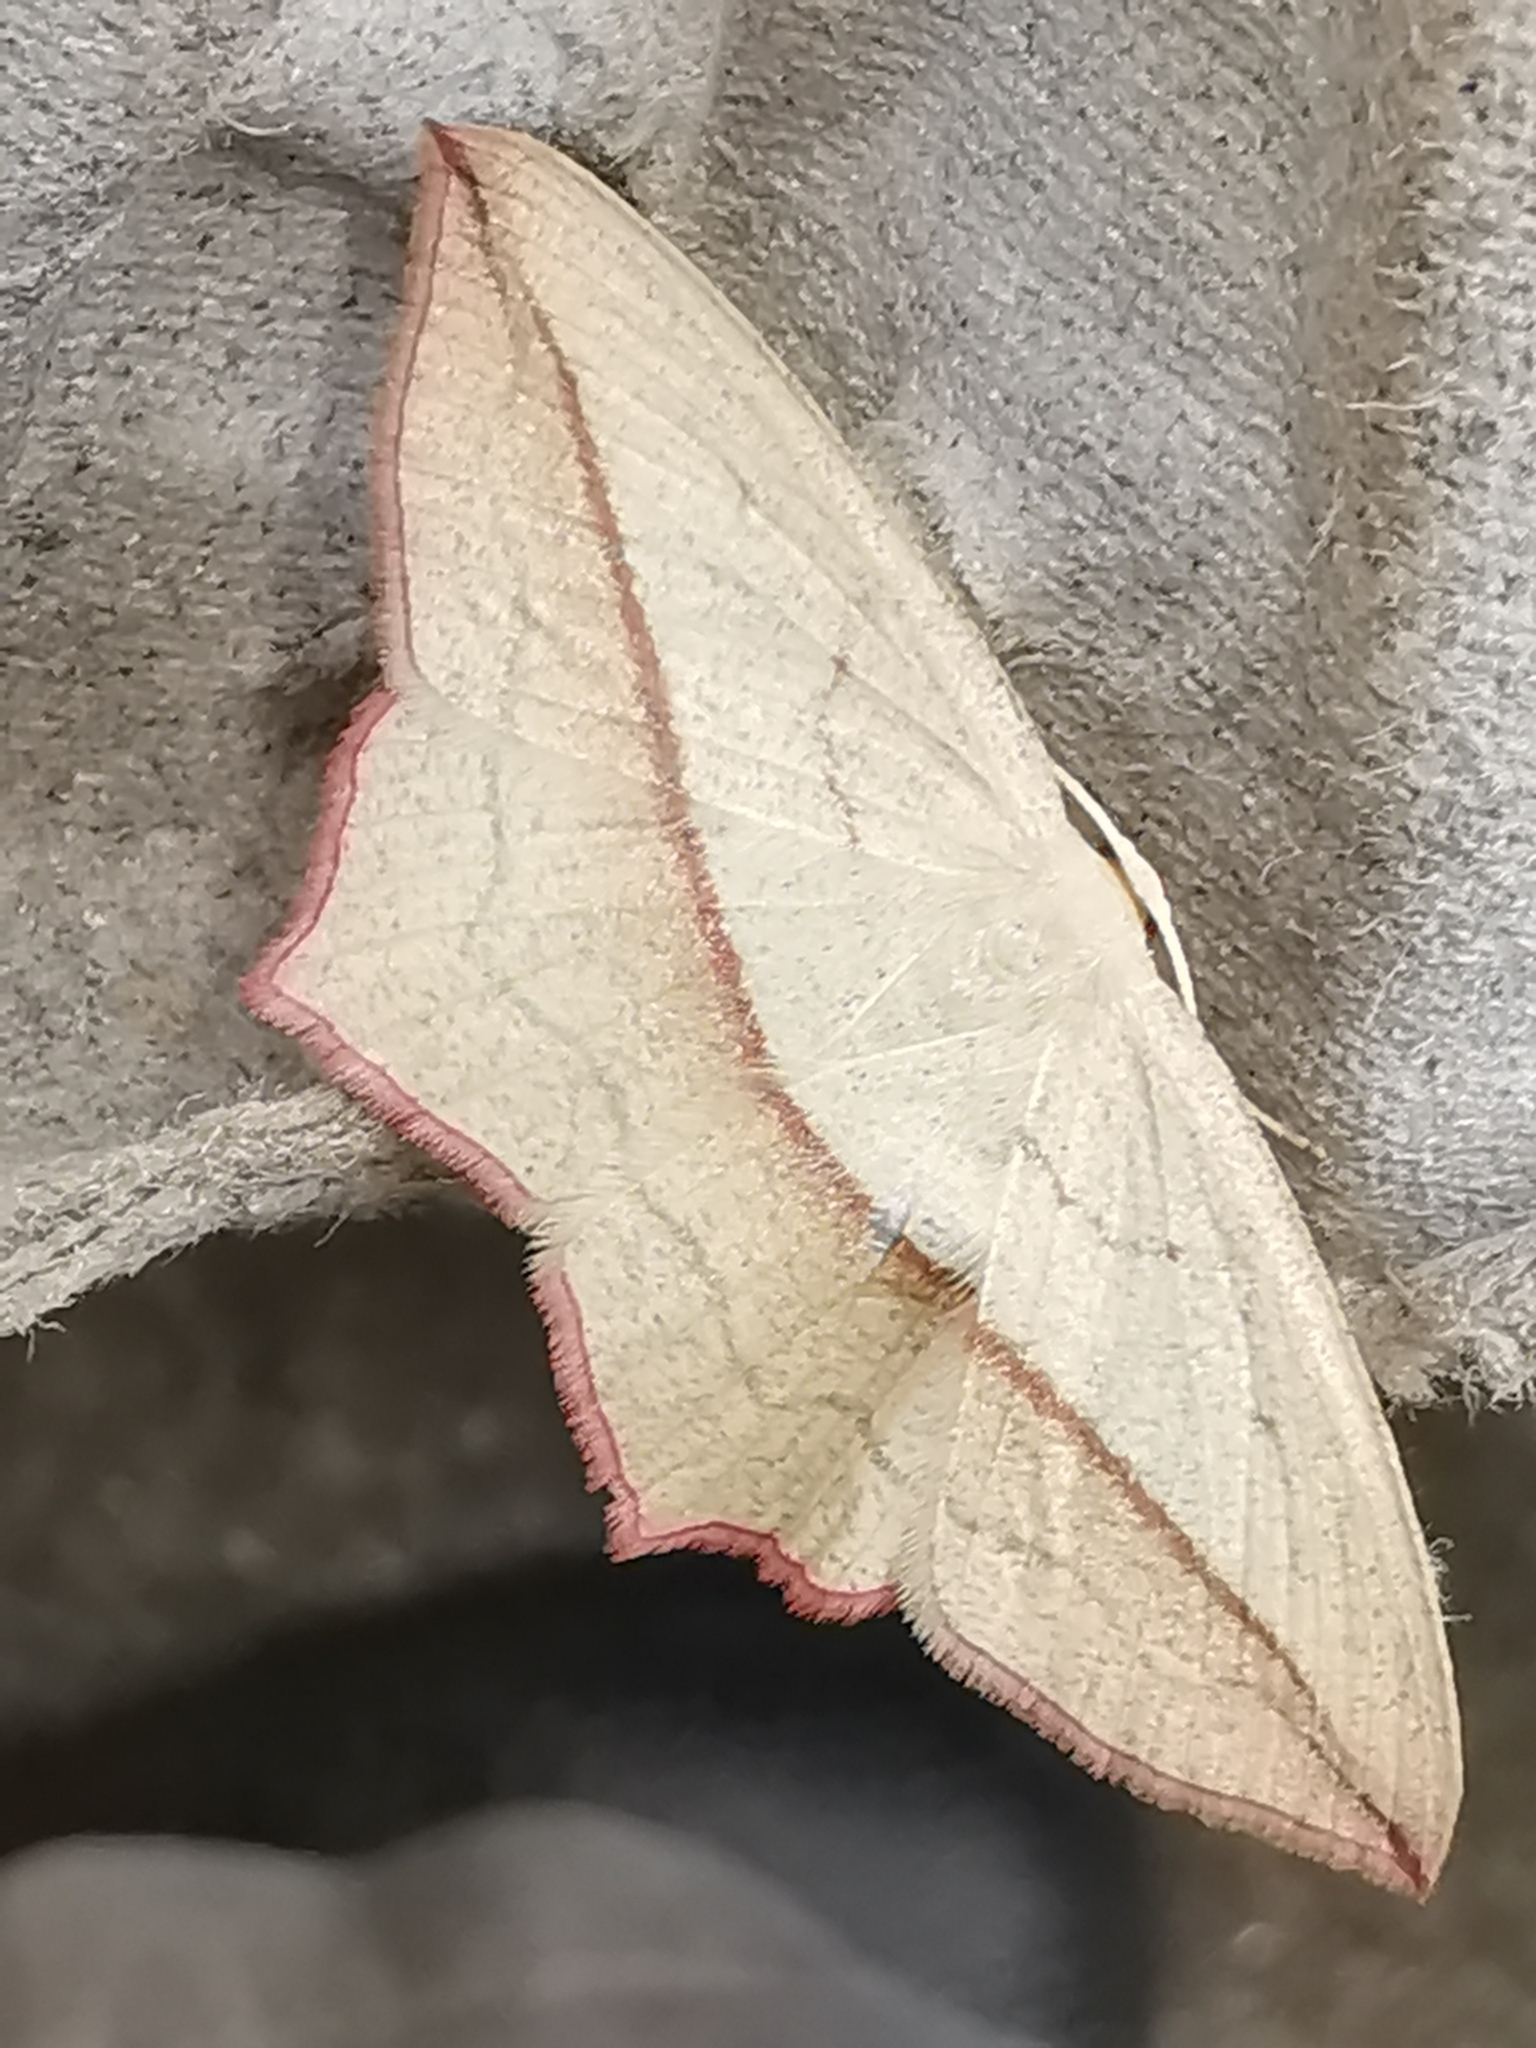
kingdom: Animalia
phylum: Arthropoda
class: Insecta
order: Lepidoptera
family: Geometridae
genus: Timandra
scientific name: Timandra comae
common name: Blood-vein
